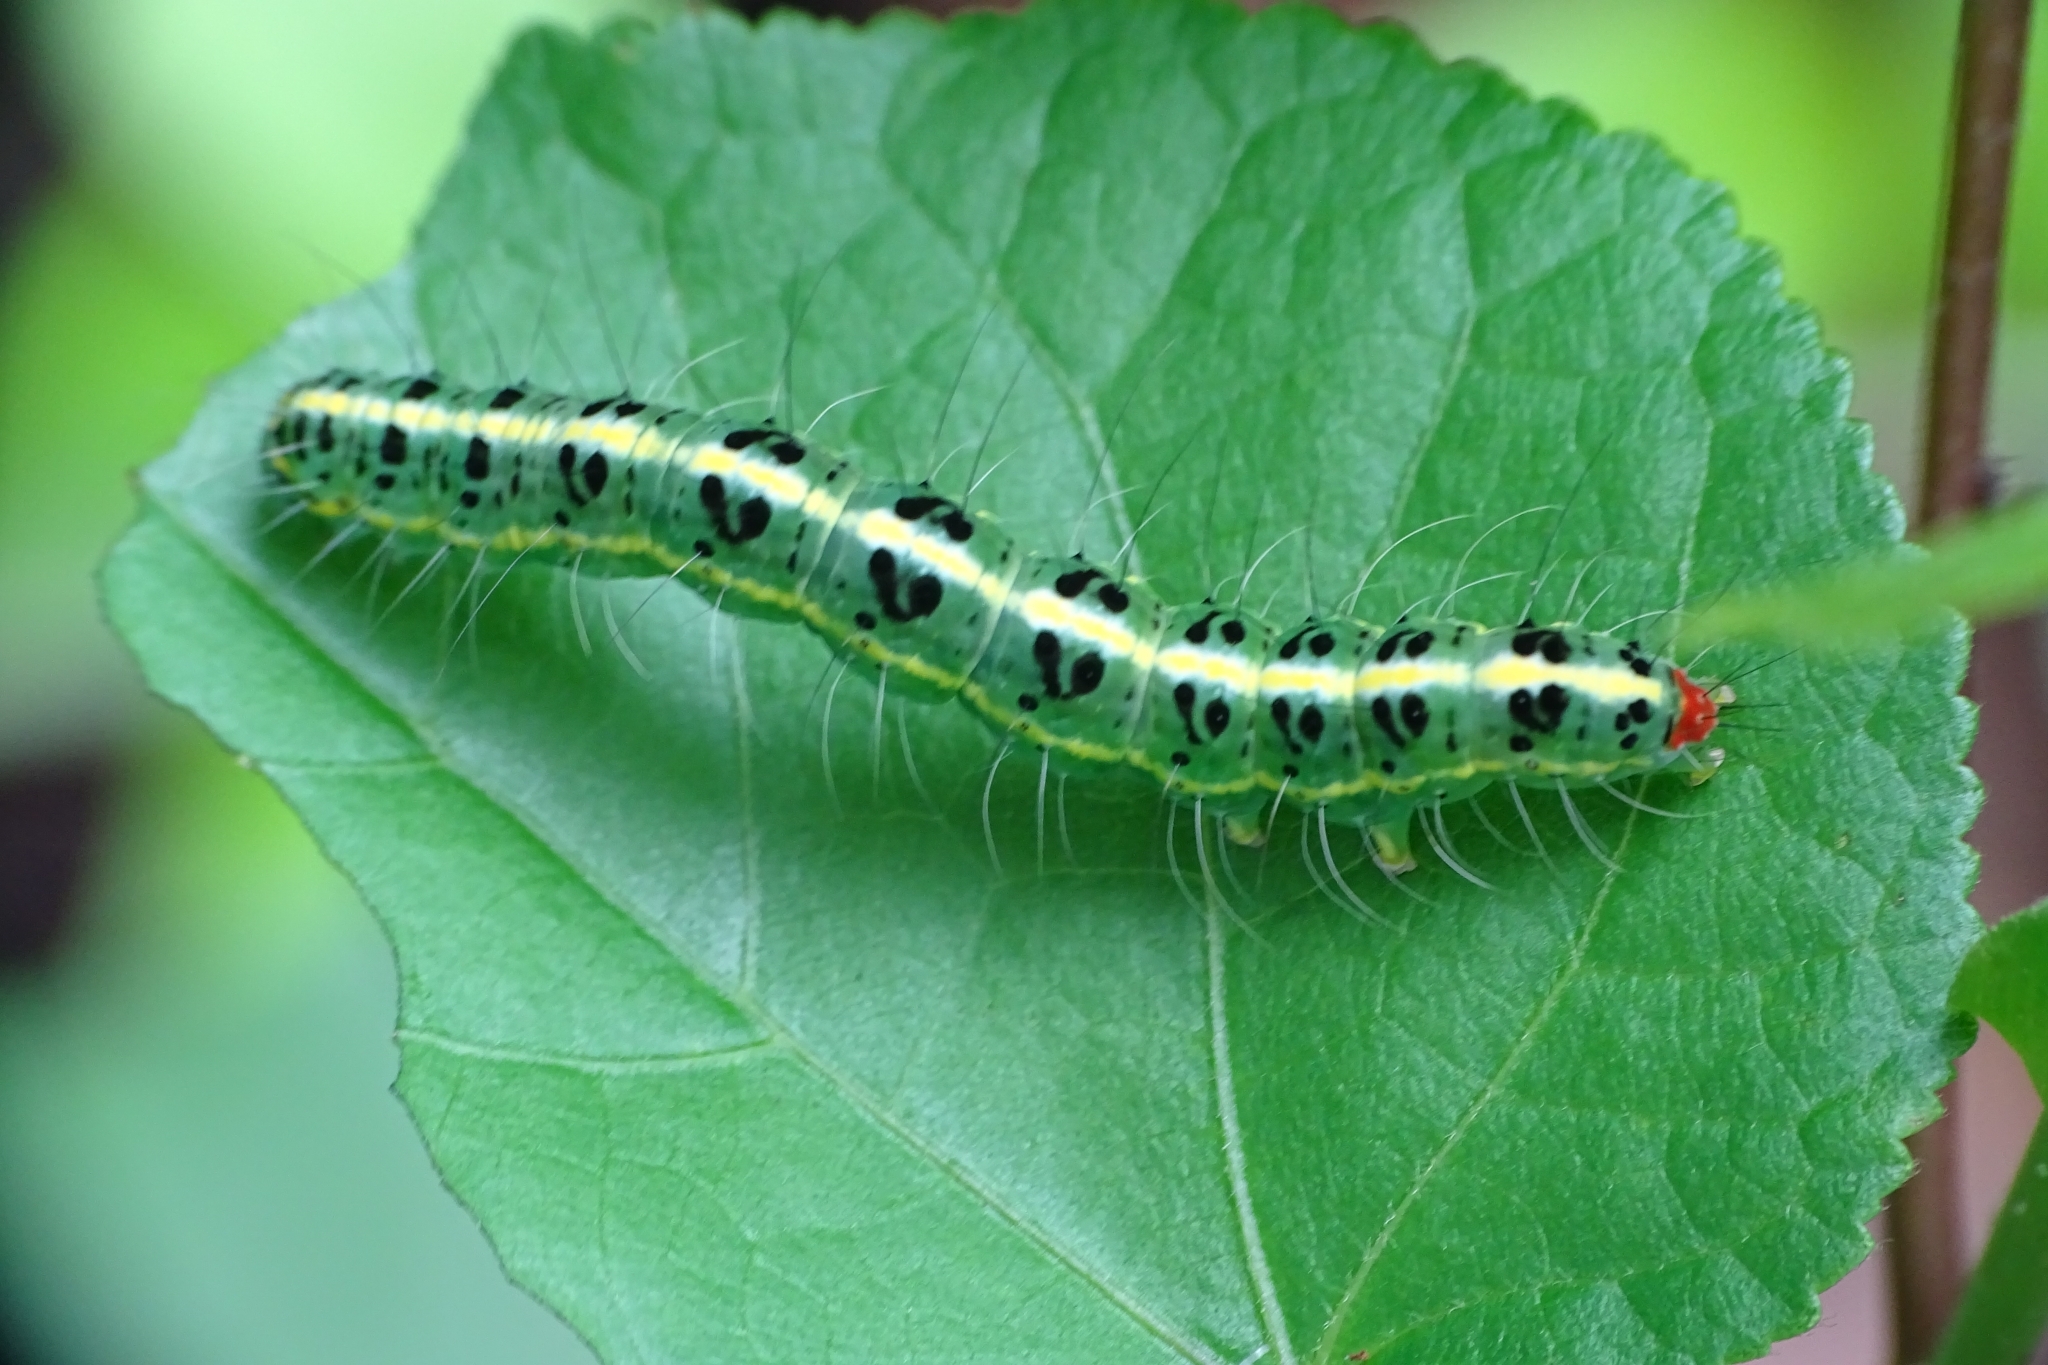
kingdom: Animalia
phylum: Arthropoda
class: Insecta
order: Lepidoptera
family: Nolidae
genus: Xanthodes
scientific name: Xanthodes transversa
